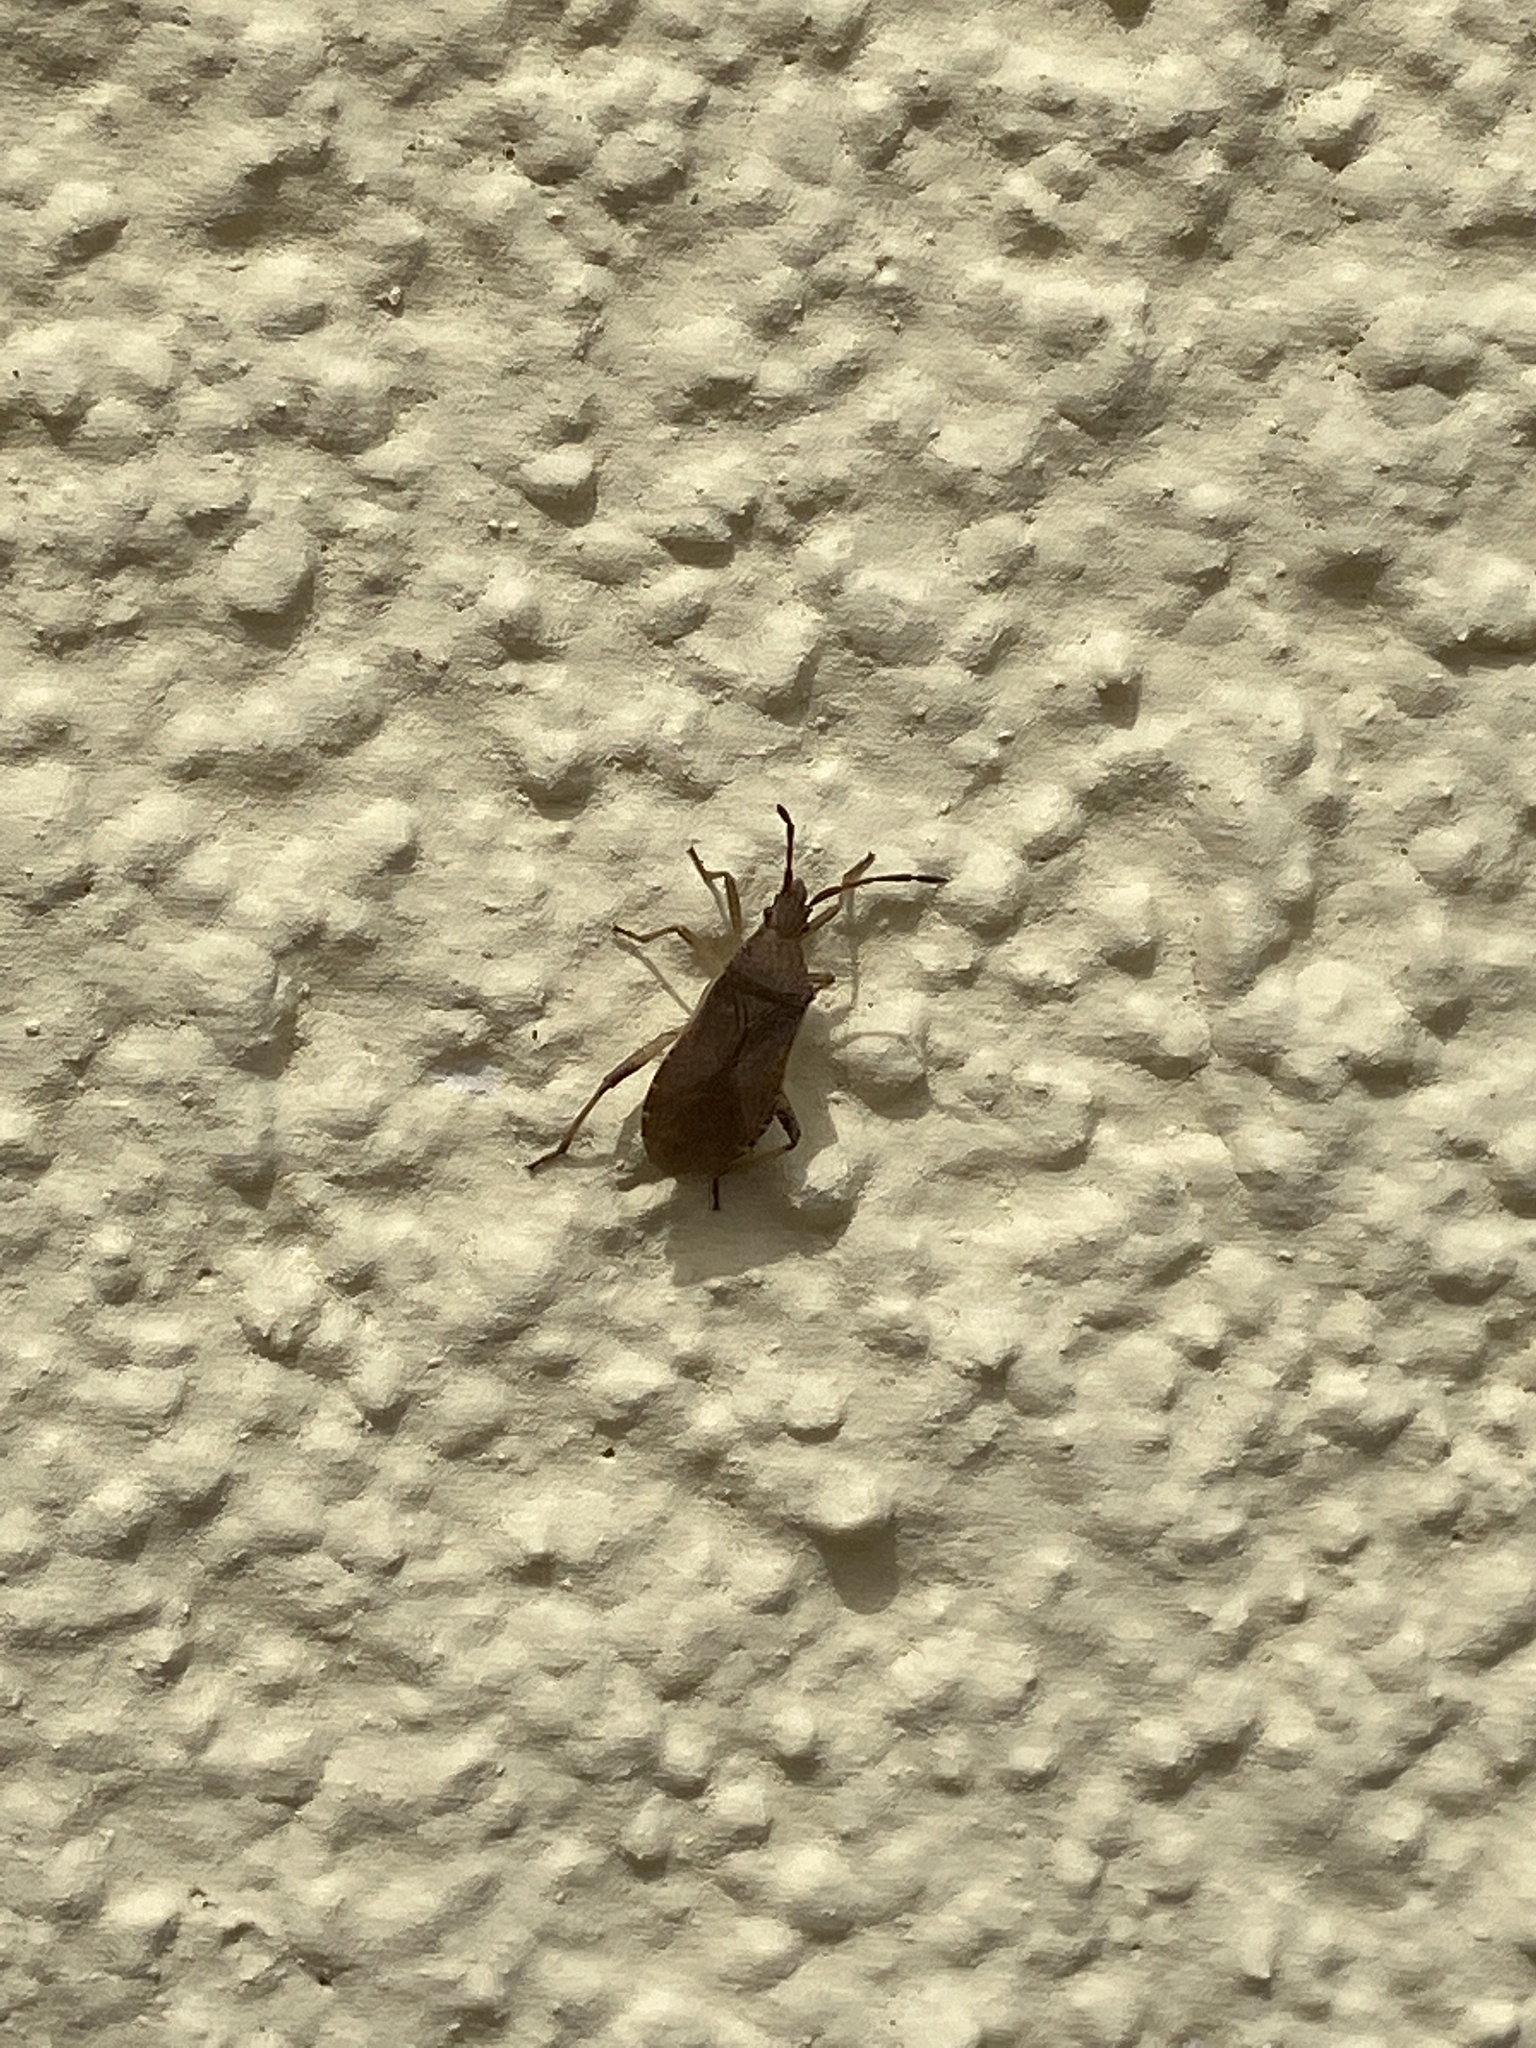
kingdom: Animalia
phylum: Arthropoda
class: Insecta
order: Hemiptera
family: Coreidae
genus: Ceraleptus
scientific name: Ceraleptus gracilicornis
